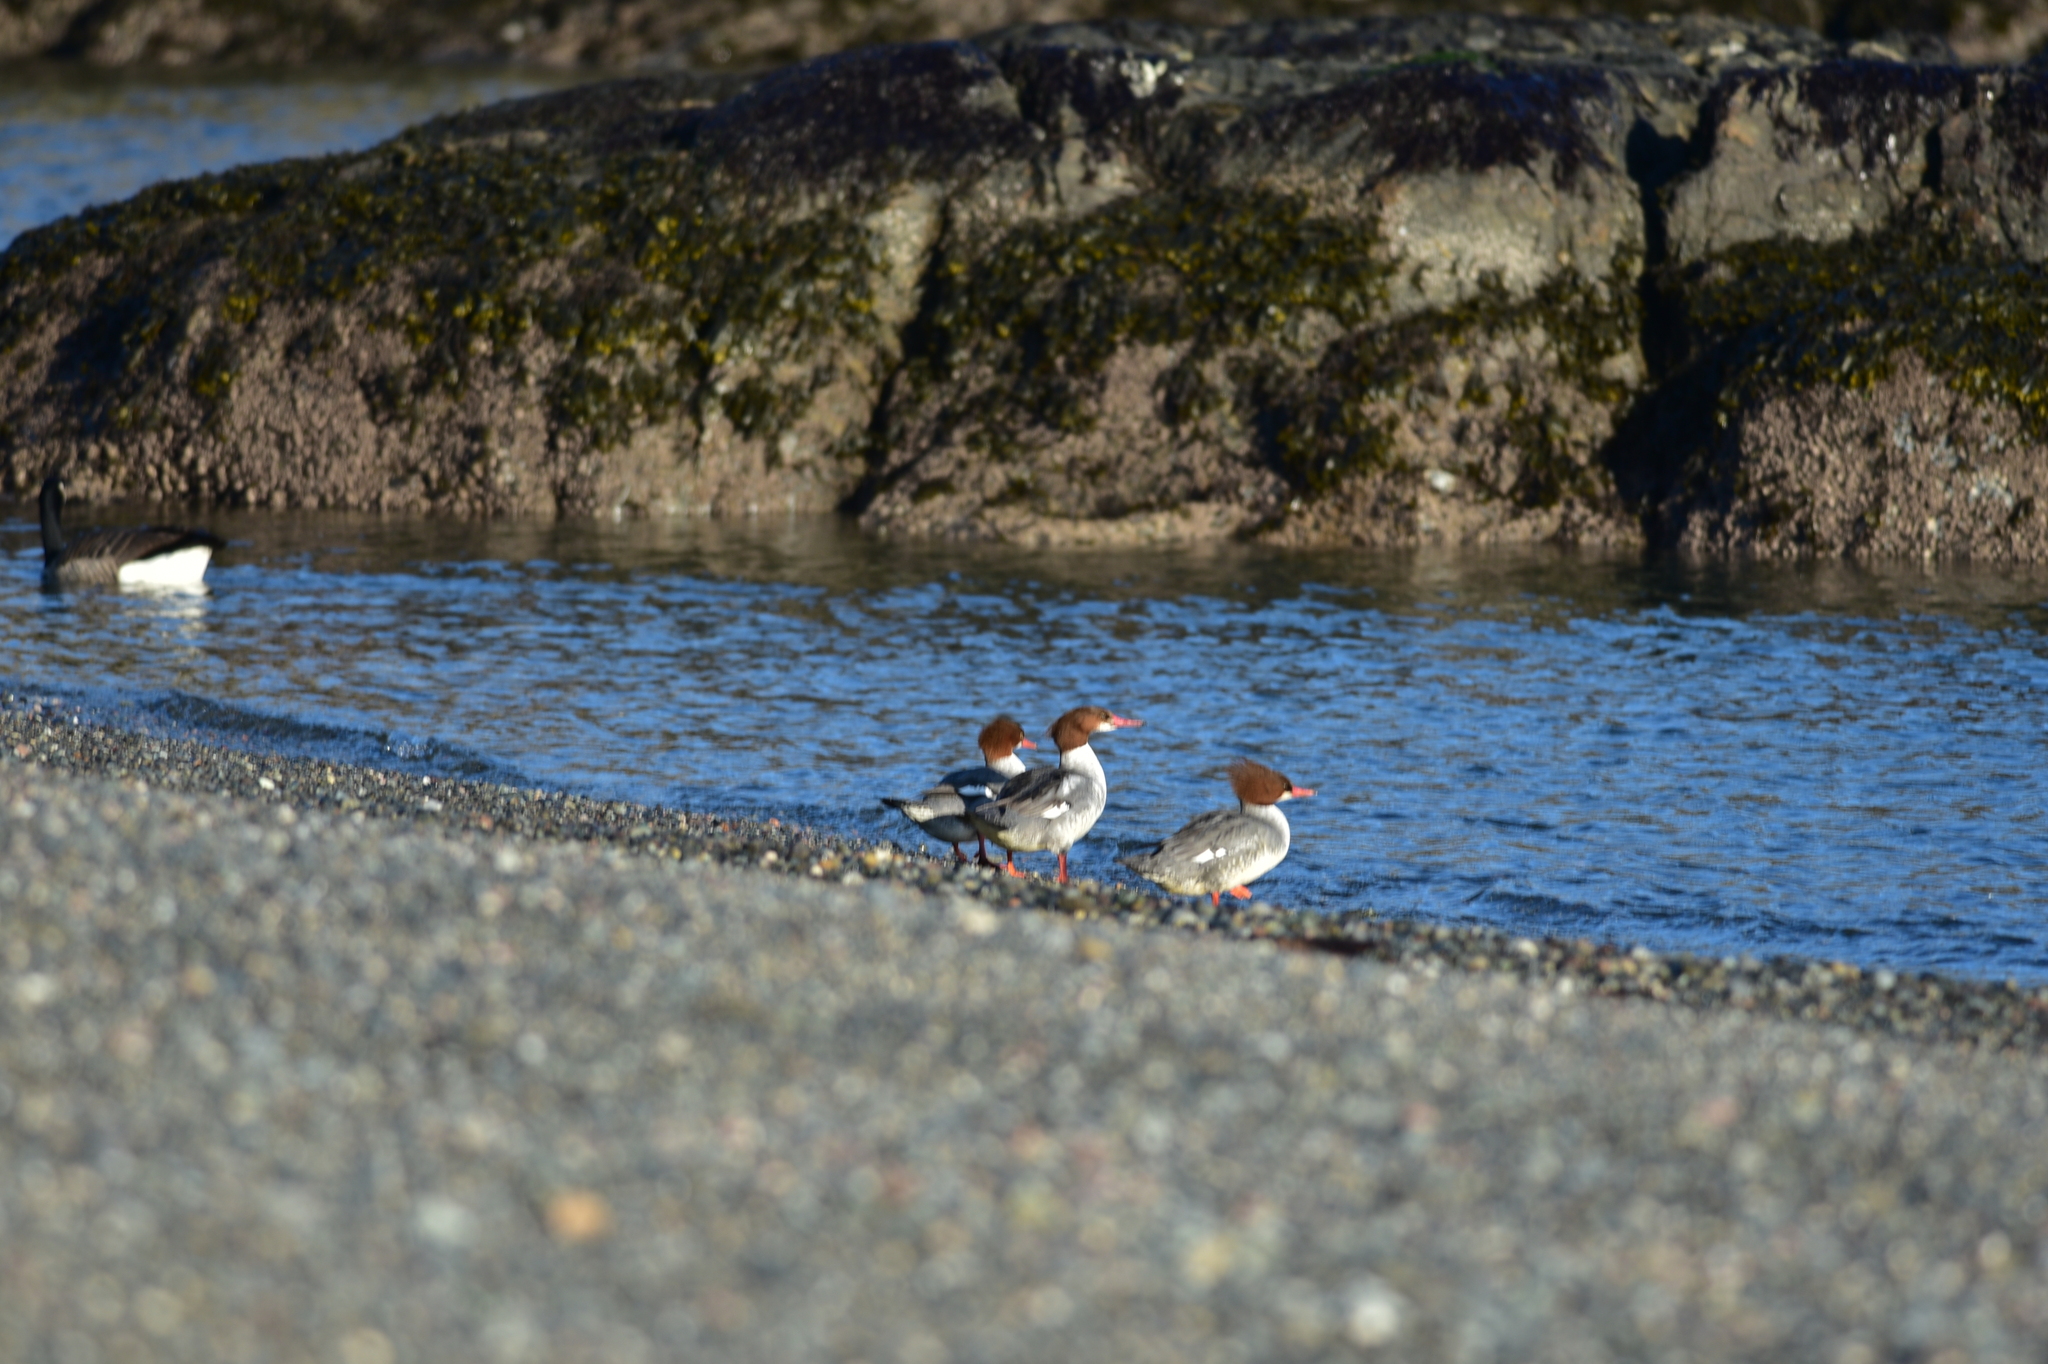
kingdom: Animalia
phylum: Chordata
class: Aves
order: Anseriformes
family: Anatidae
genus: Mergus
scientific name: Mergus merganser
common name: Common merganser
